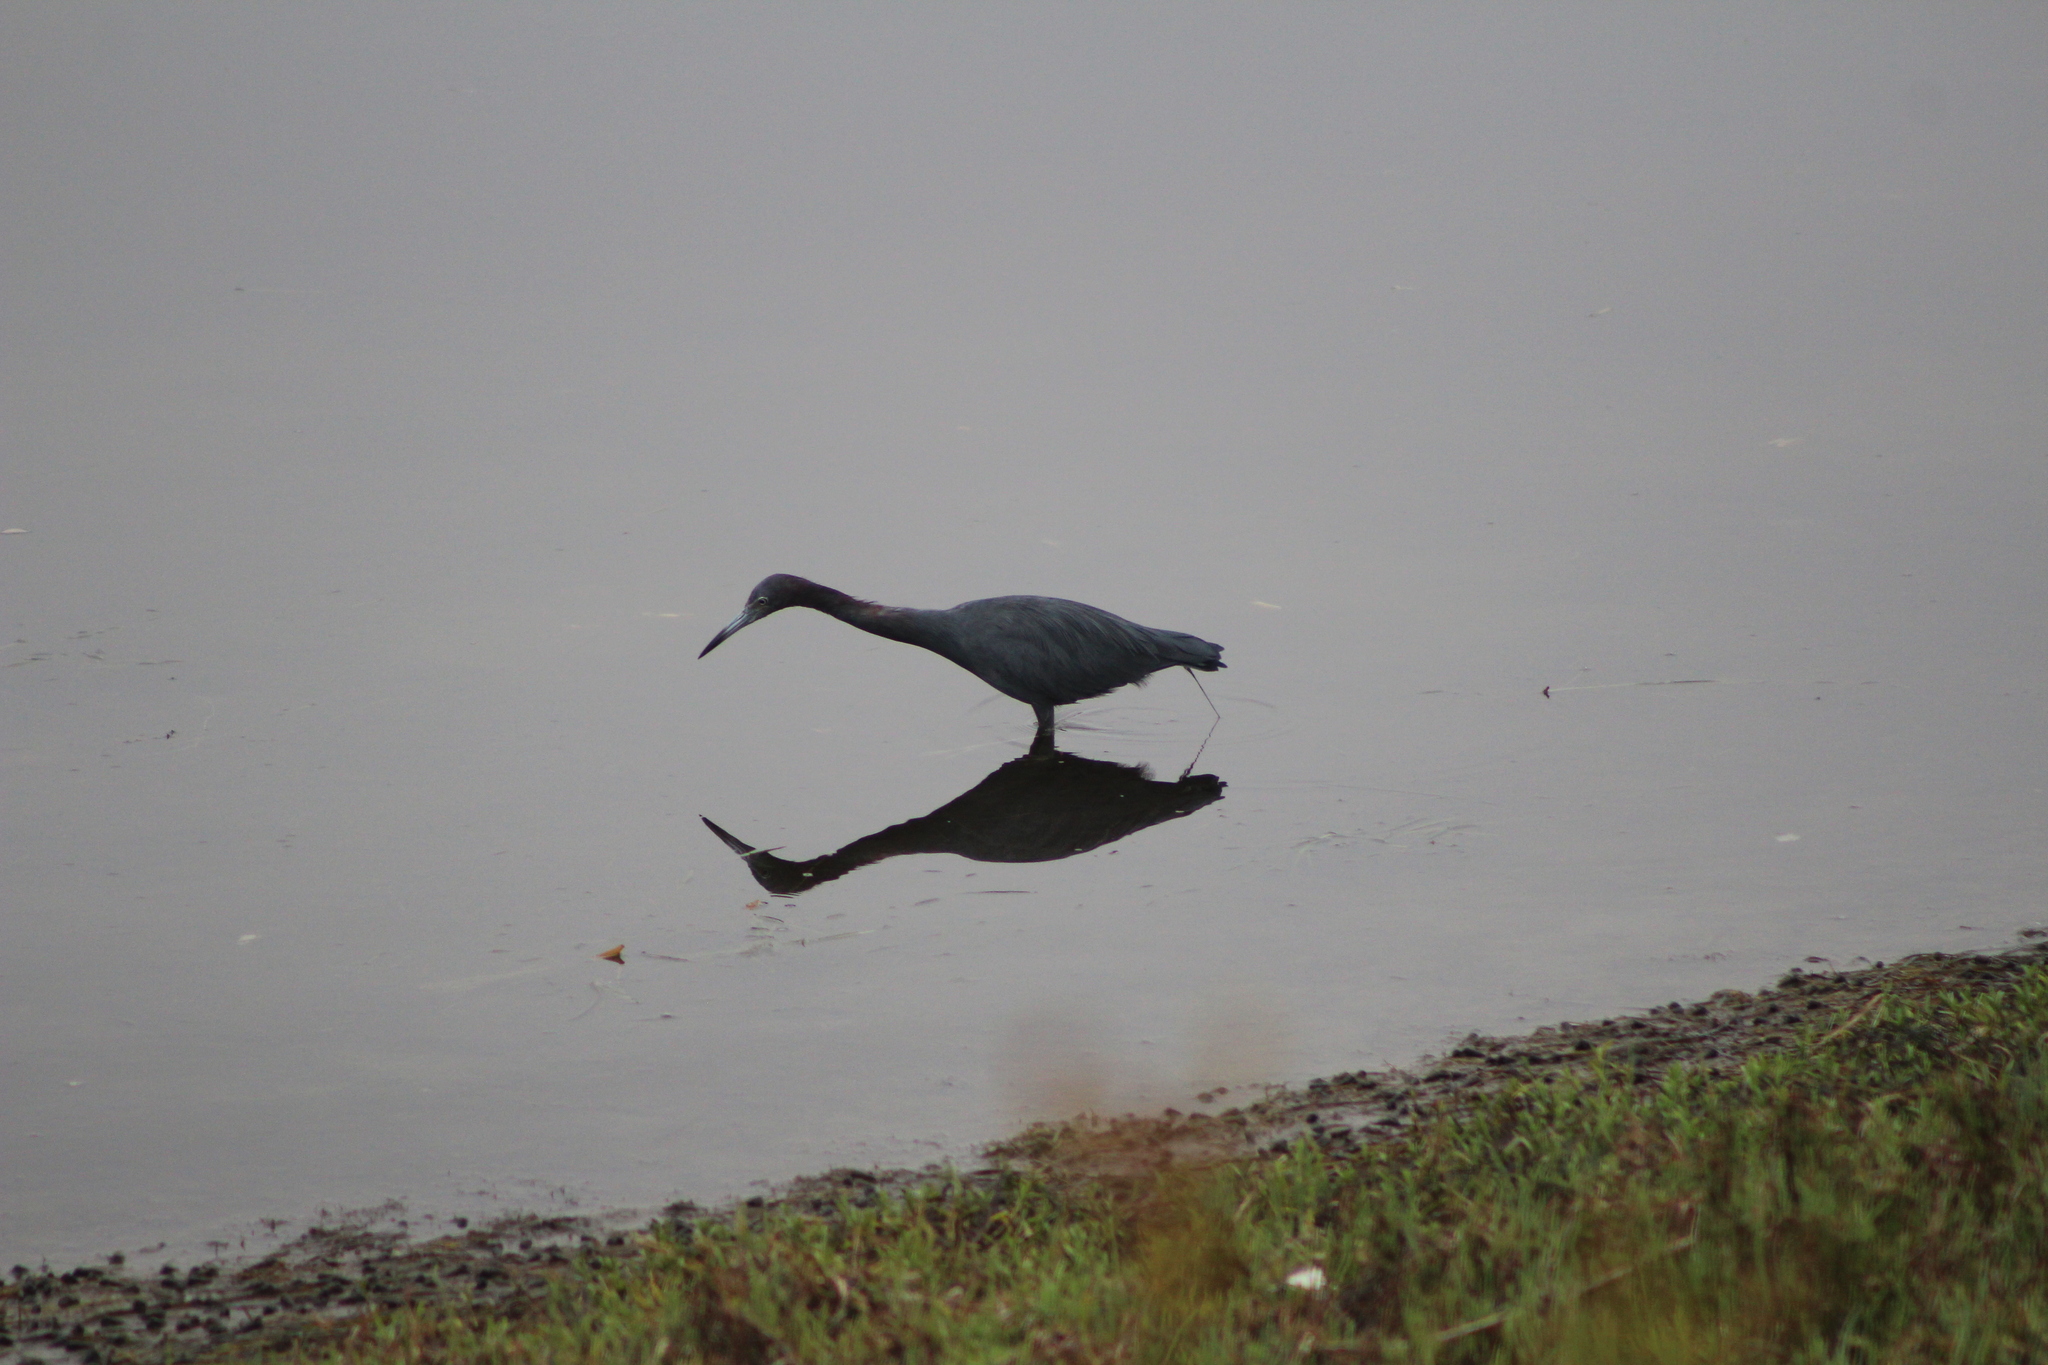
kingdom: Animalia
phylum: Chordata
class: Aves
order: Pelecaniformes
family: Ardeidae
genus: Egretta
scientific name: Egretta caerulea
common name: Little blue heron
